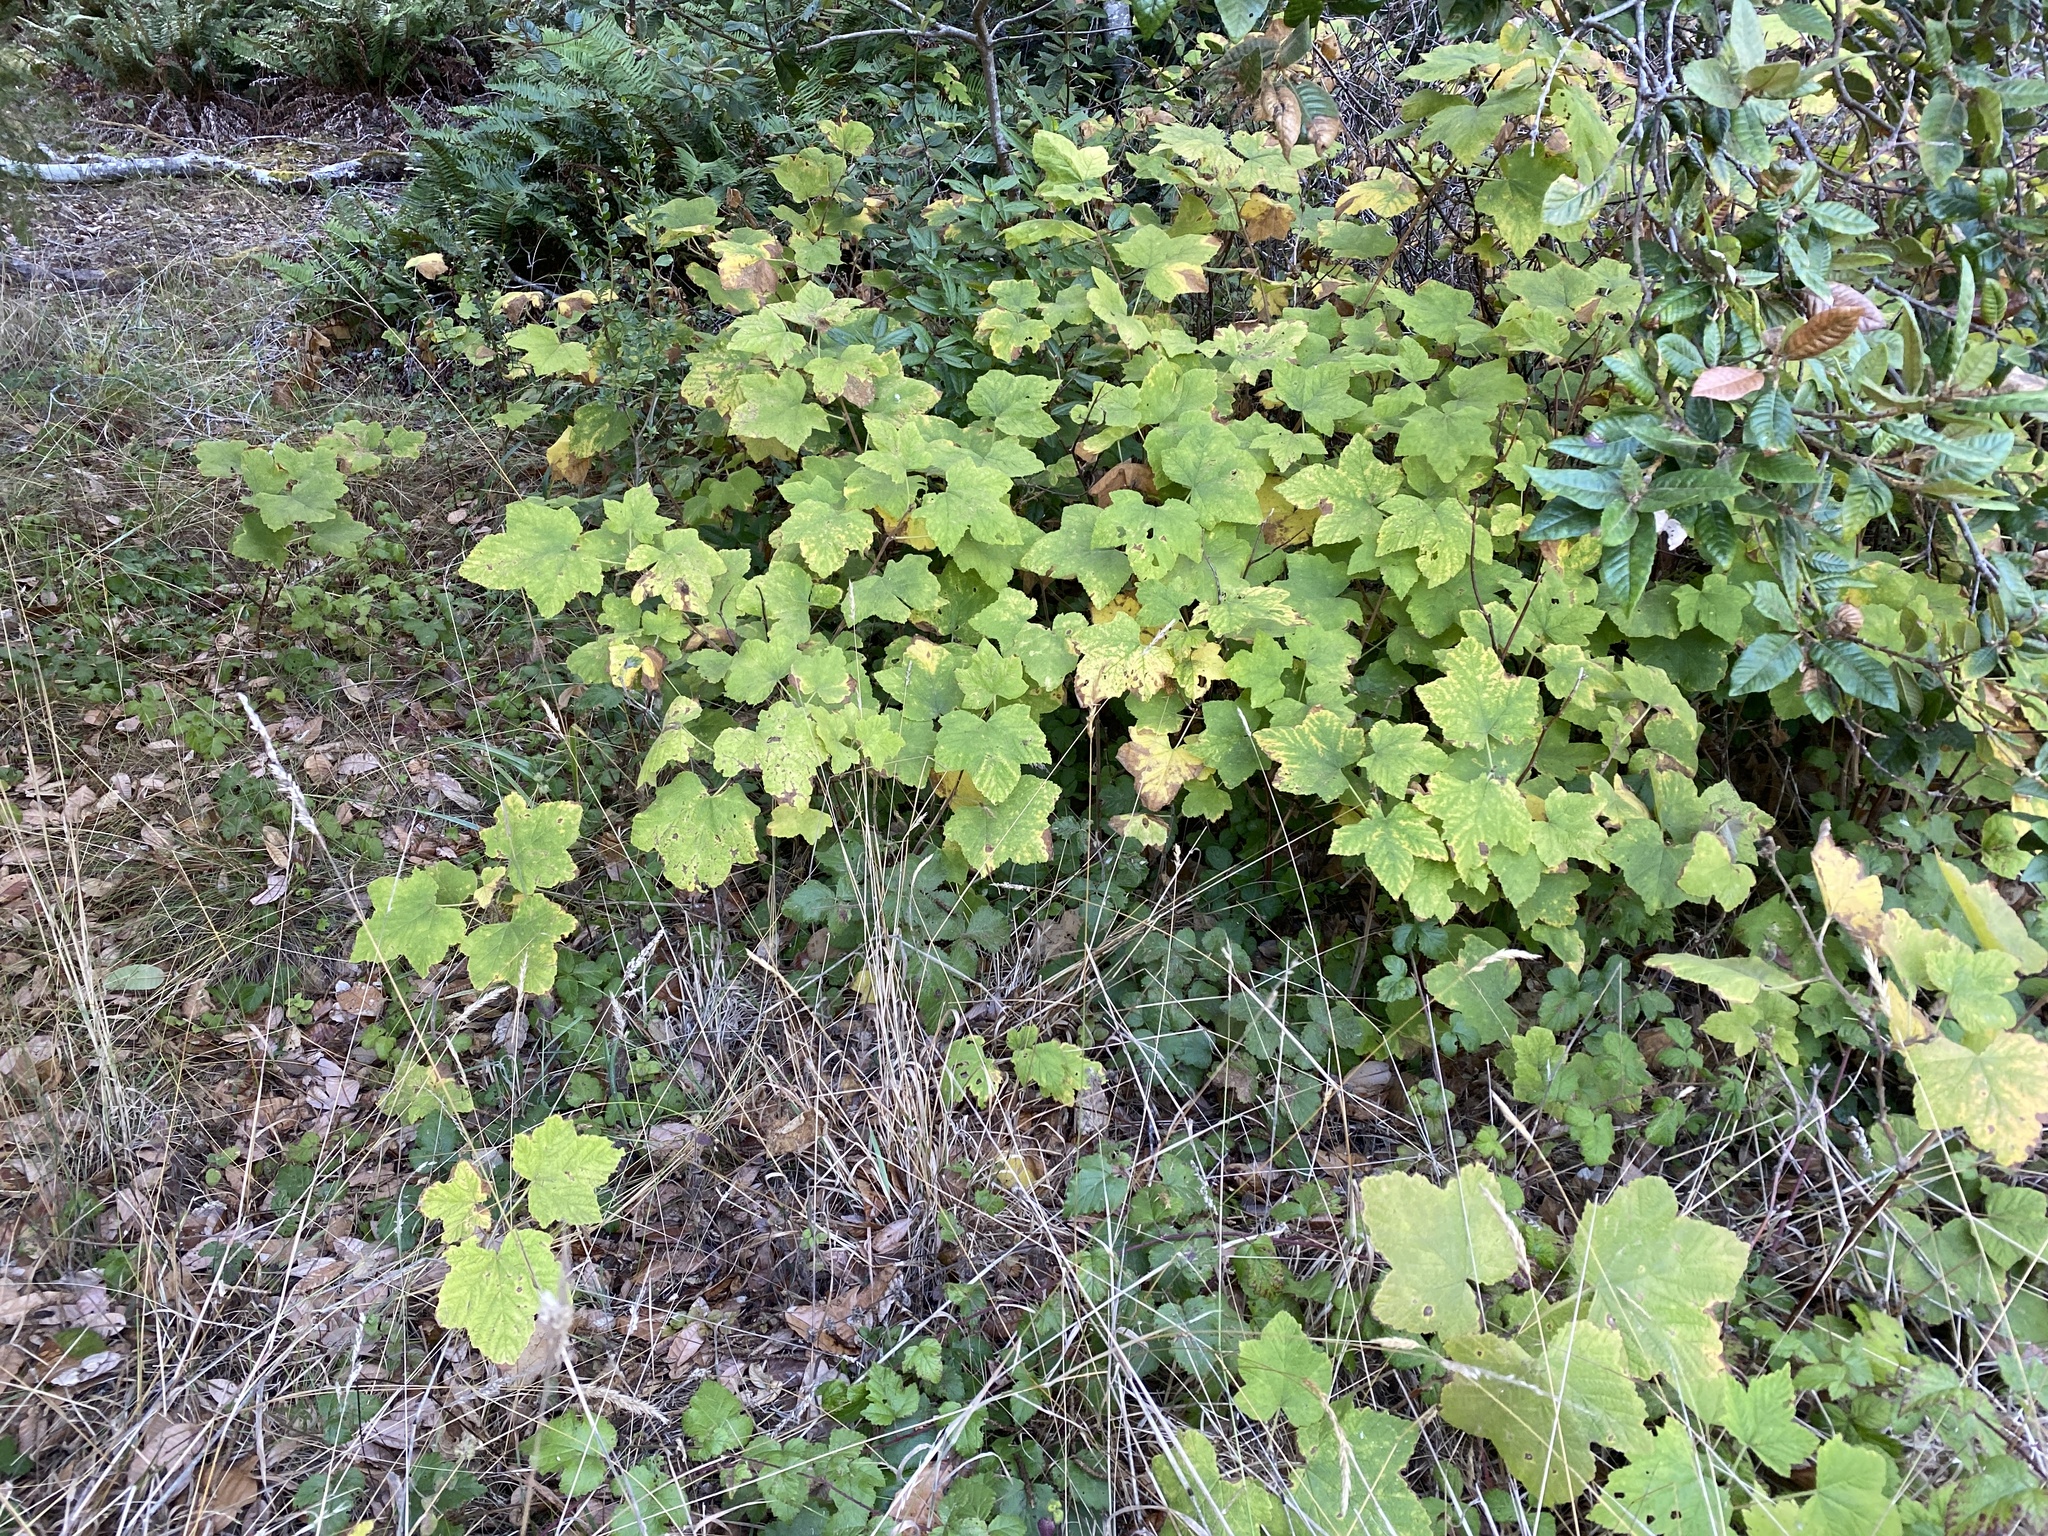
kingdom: Plantae
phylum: Tracheophyta
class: Magnoliopsida
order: Rosales
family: Rosaceae
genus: Rubus
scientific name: Rubus parviflorus
